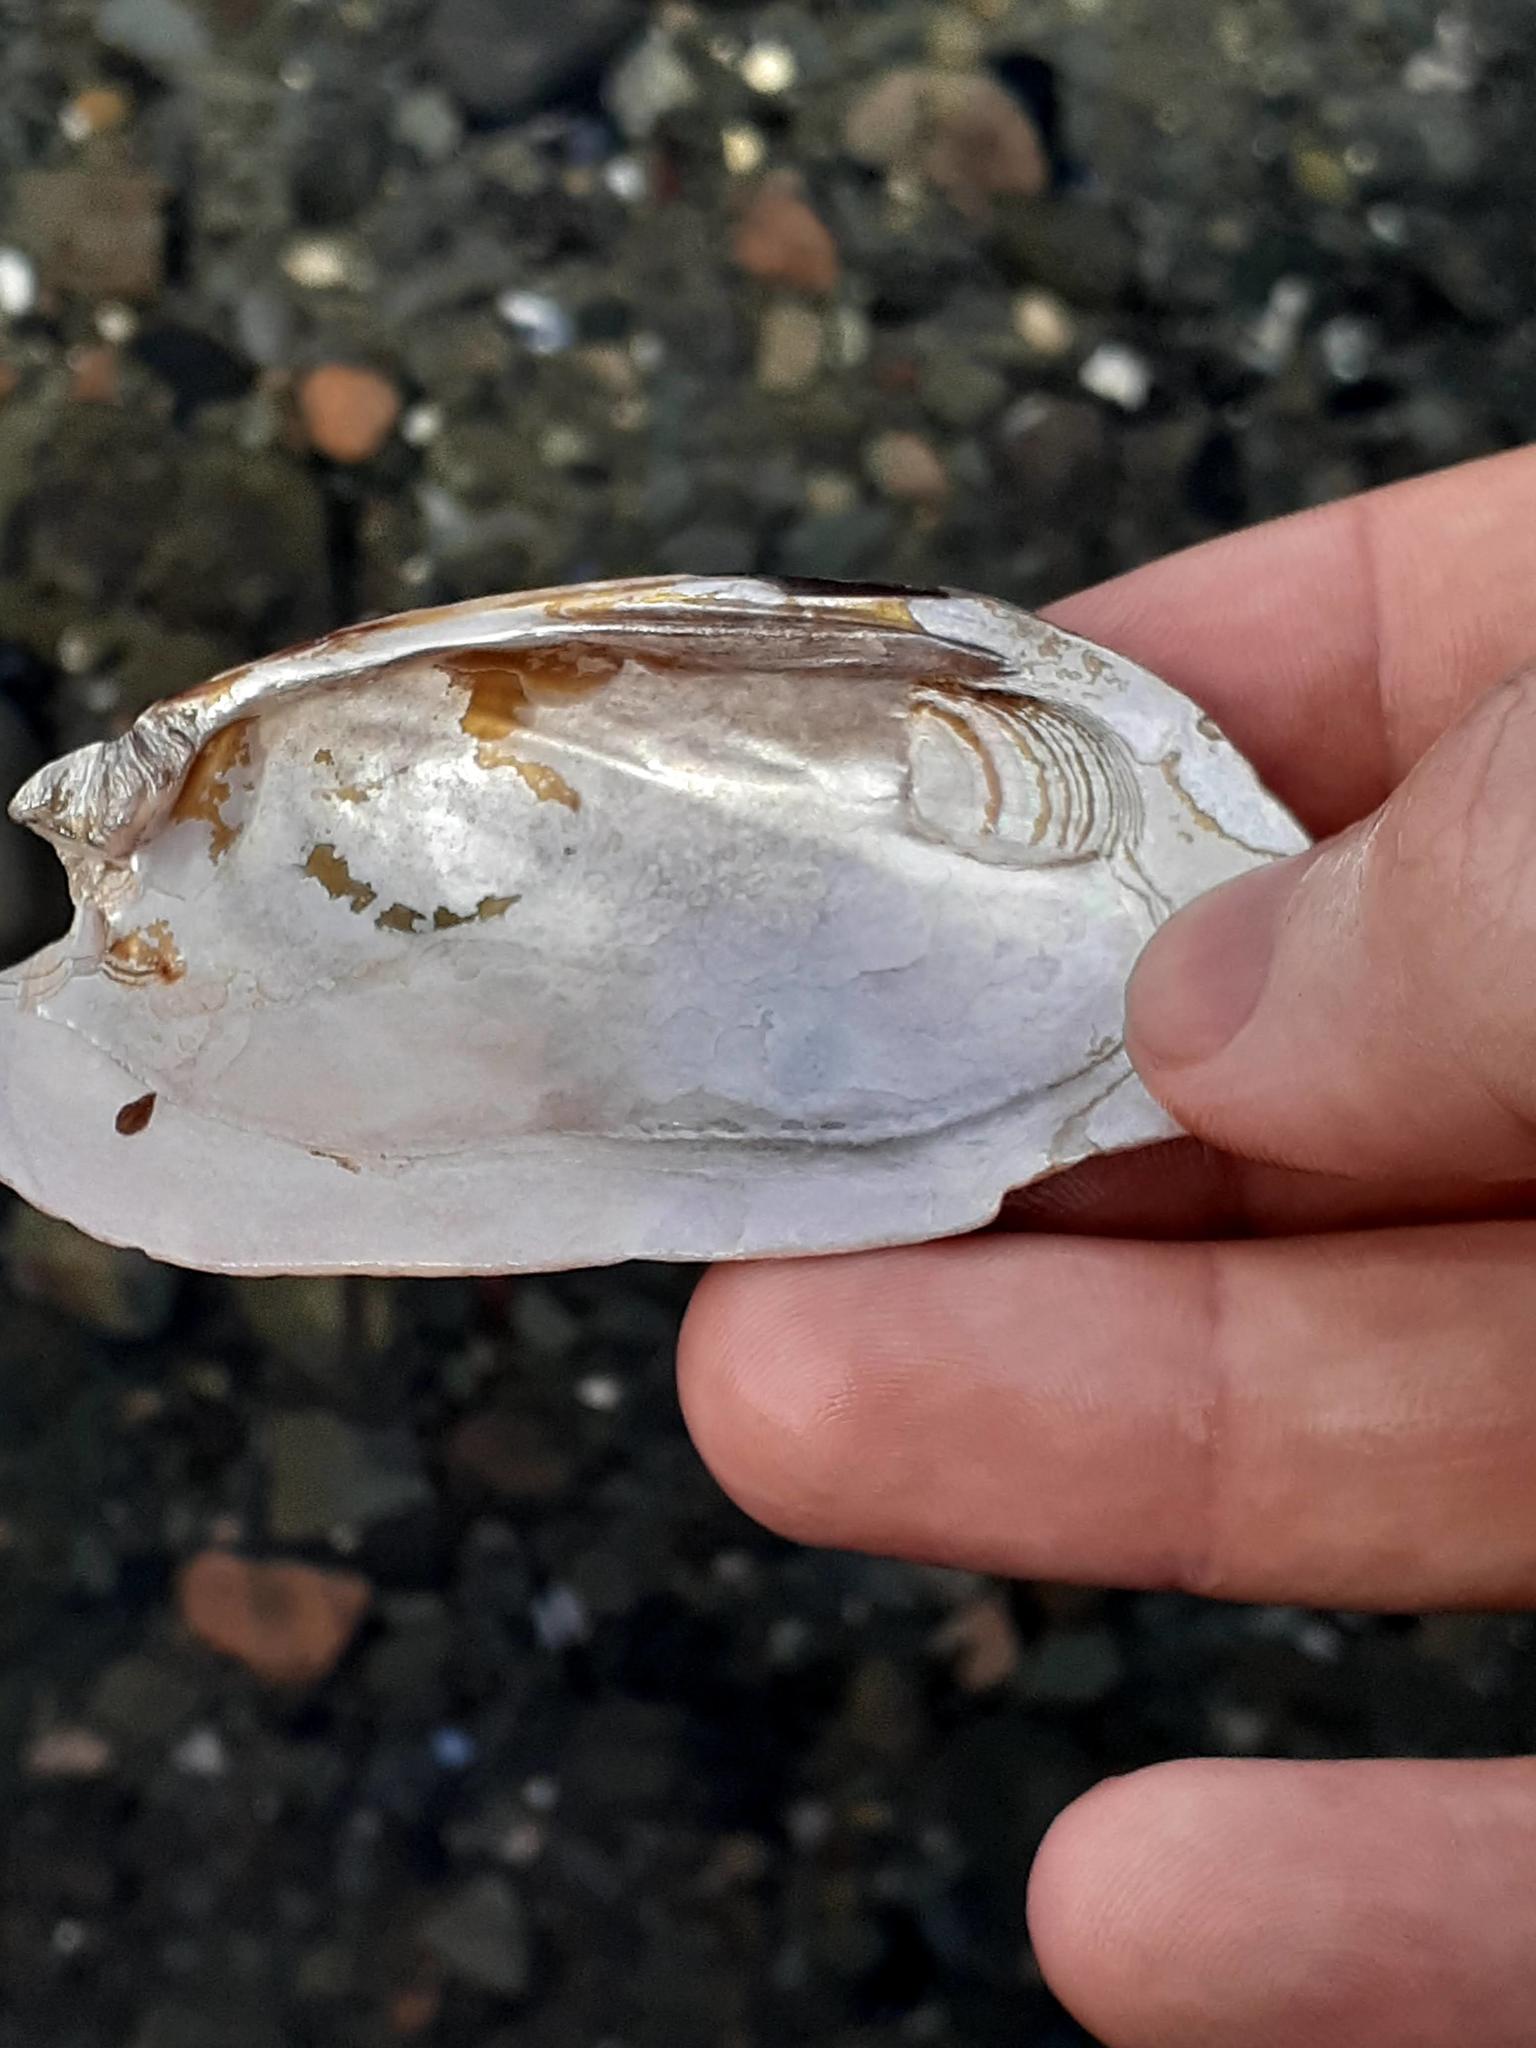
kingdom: Animalia
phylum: Mollusca
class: Bivalvia
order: Unionida
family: Unionidae
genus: Elliptio
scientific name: Elliptio complanata
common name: Eastern elliptio
